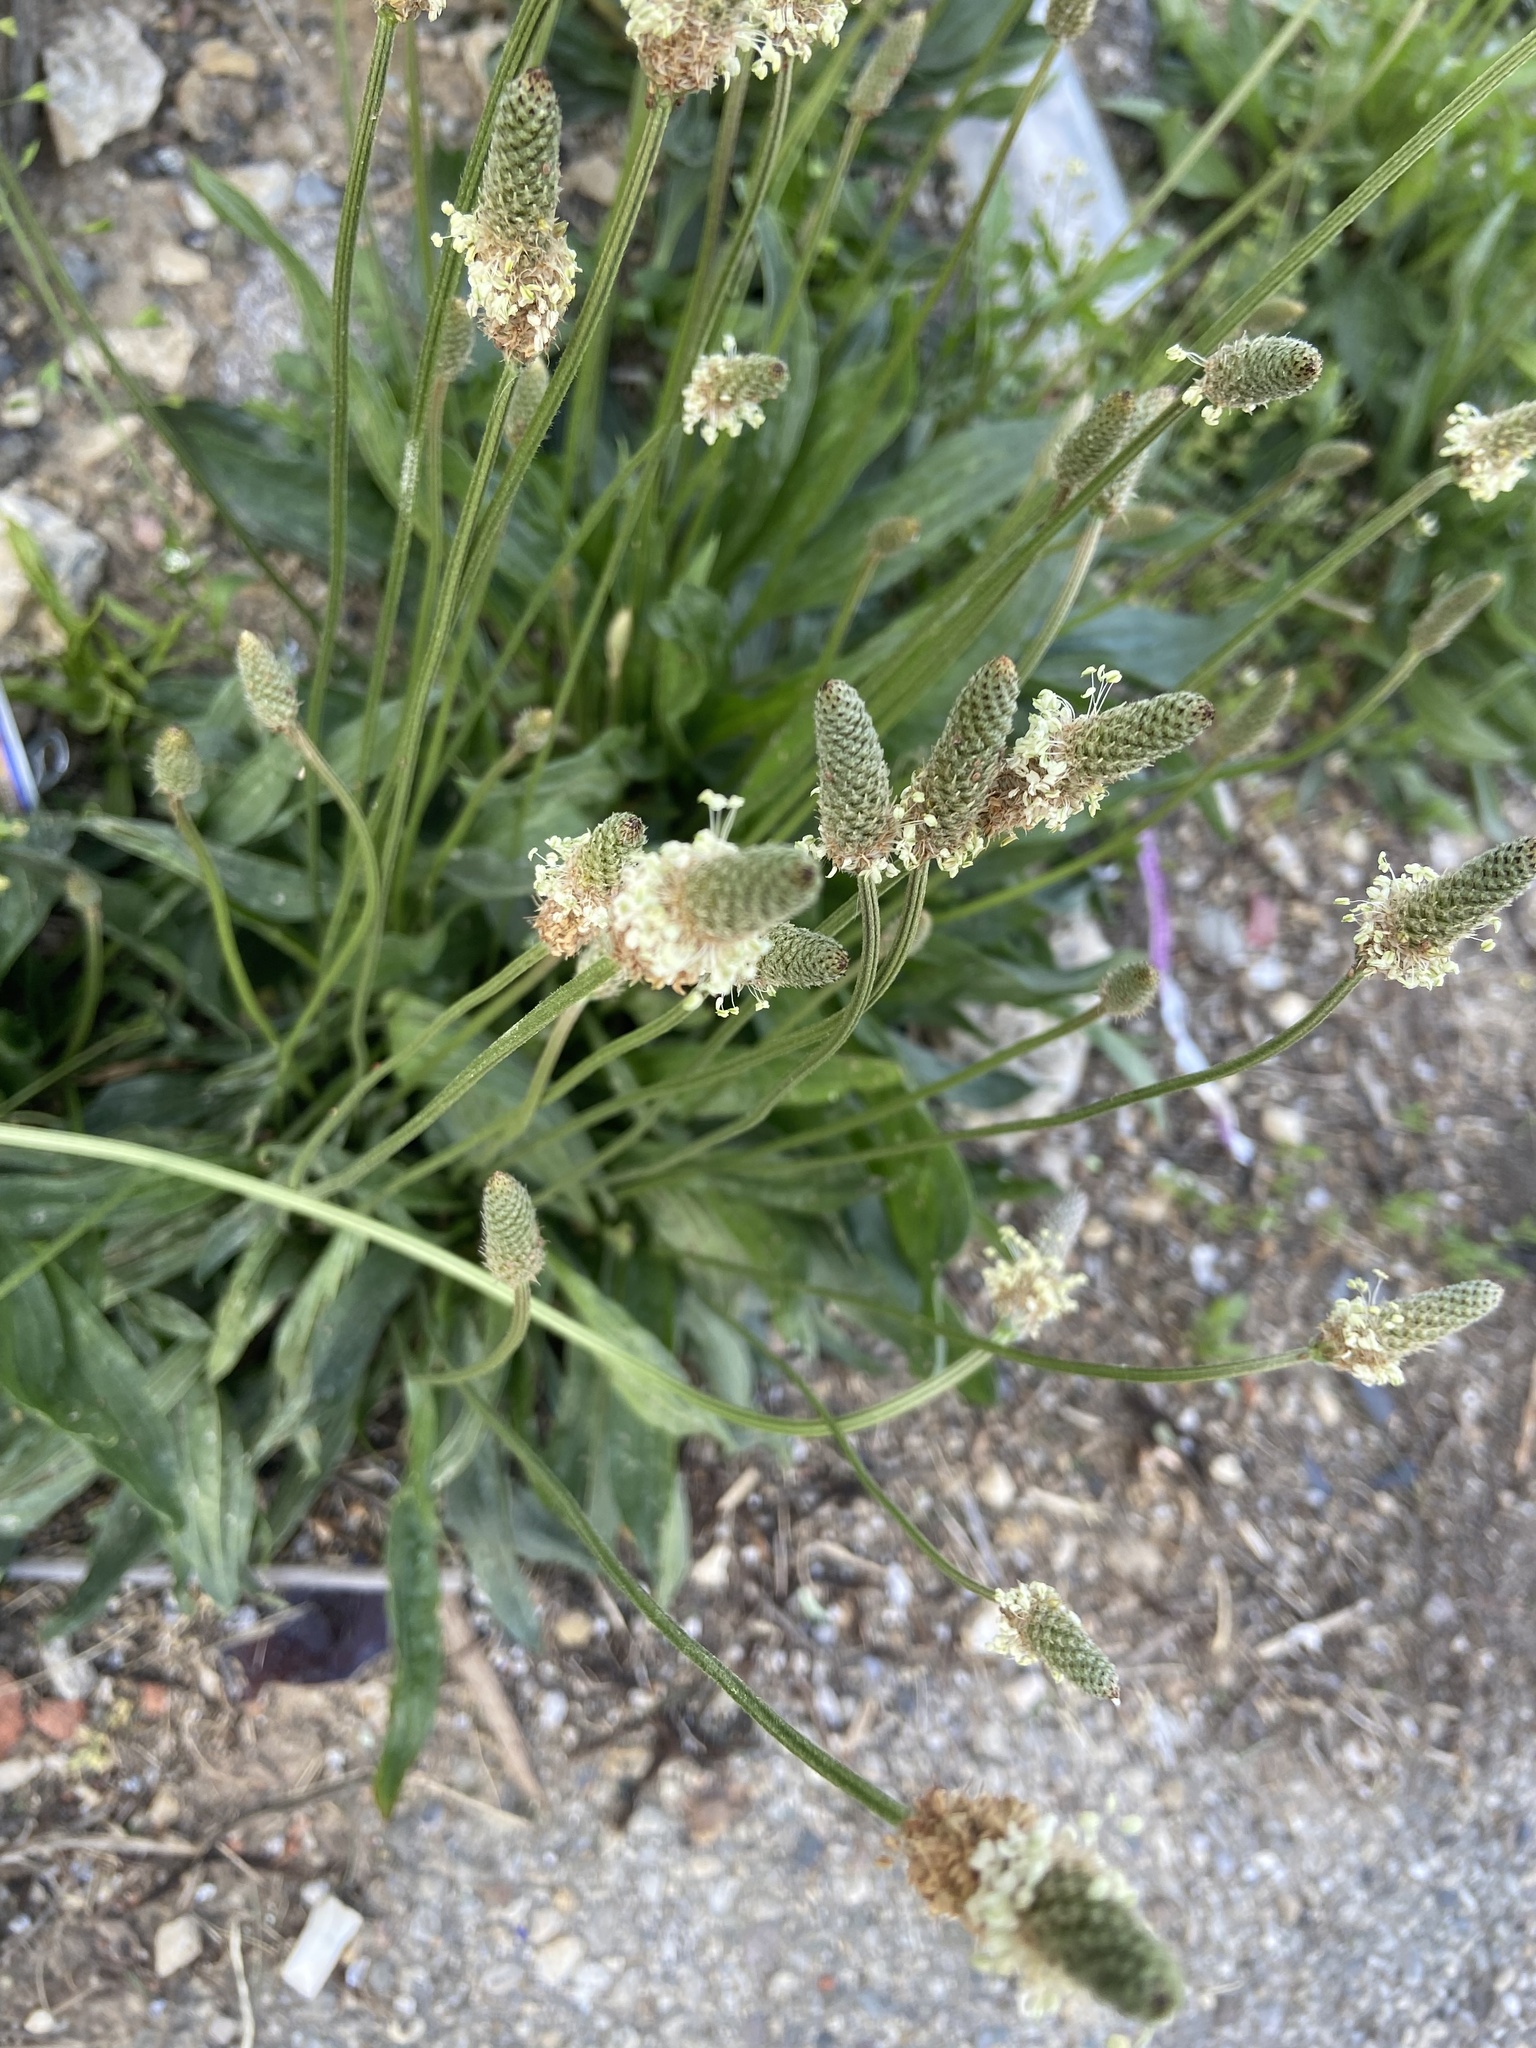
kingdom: Plantae
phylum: Tracheophyta
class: Magnoliopsida
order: Lamiales
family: Plantaginaceae
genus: Plantago
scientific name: Plantago lanceolata
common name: Ribwort plantain
